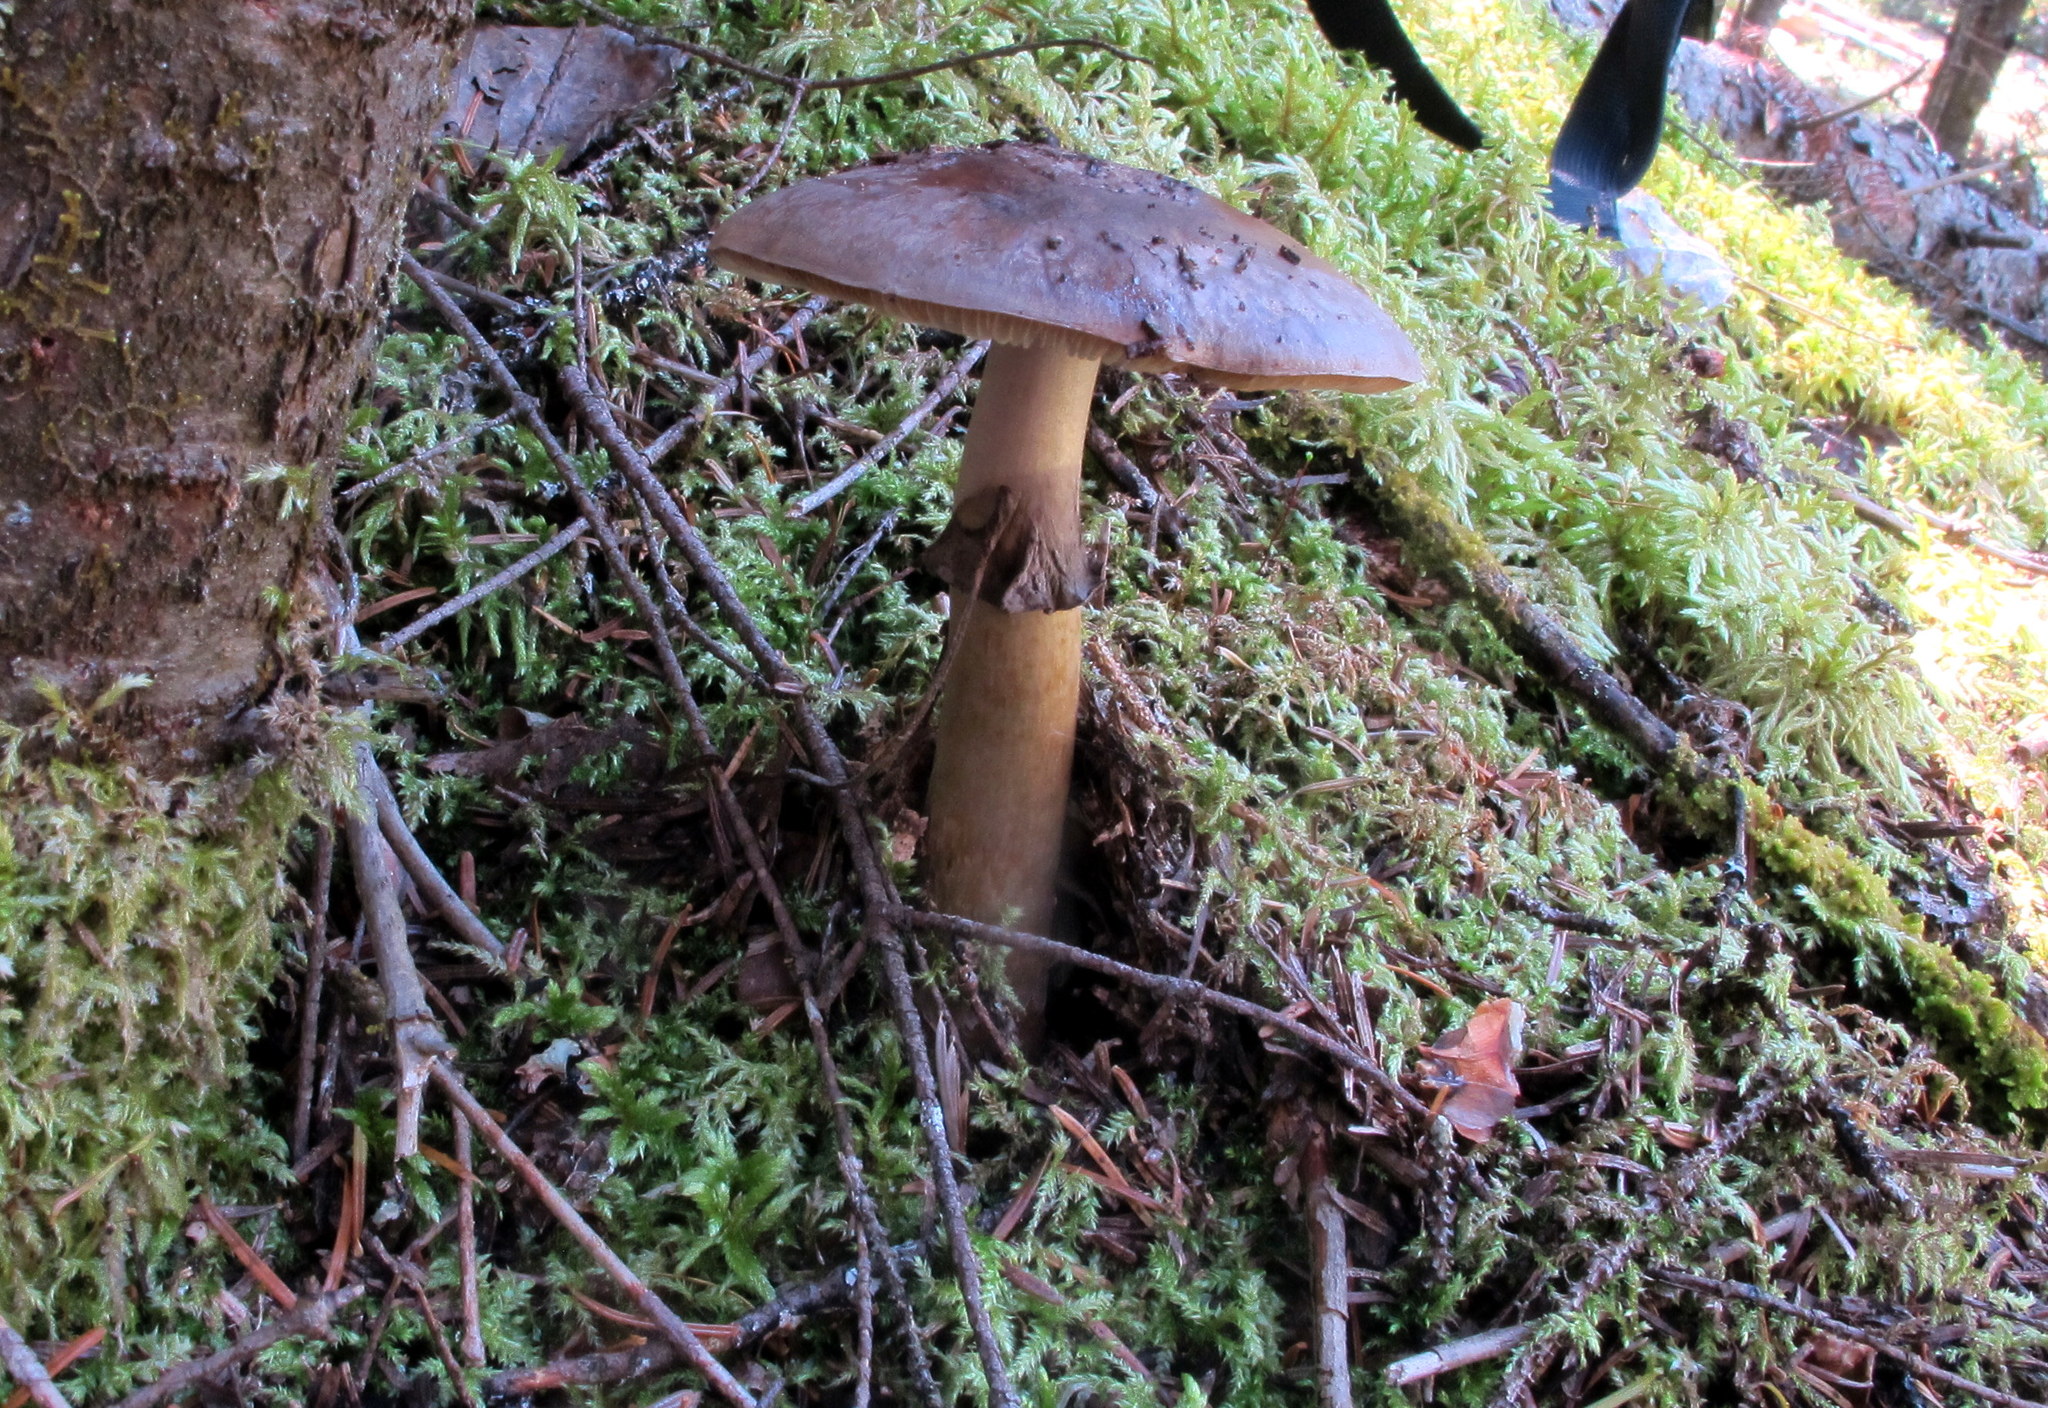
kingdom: Fungi
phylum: Basidiomycota
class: Agaricomycetes
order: Agaricales
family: Amanitaceae
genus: Amanita
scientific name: Amanita porphyria
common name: Grey veiled amanita
